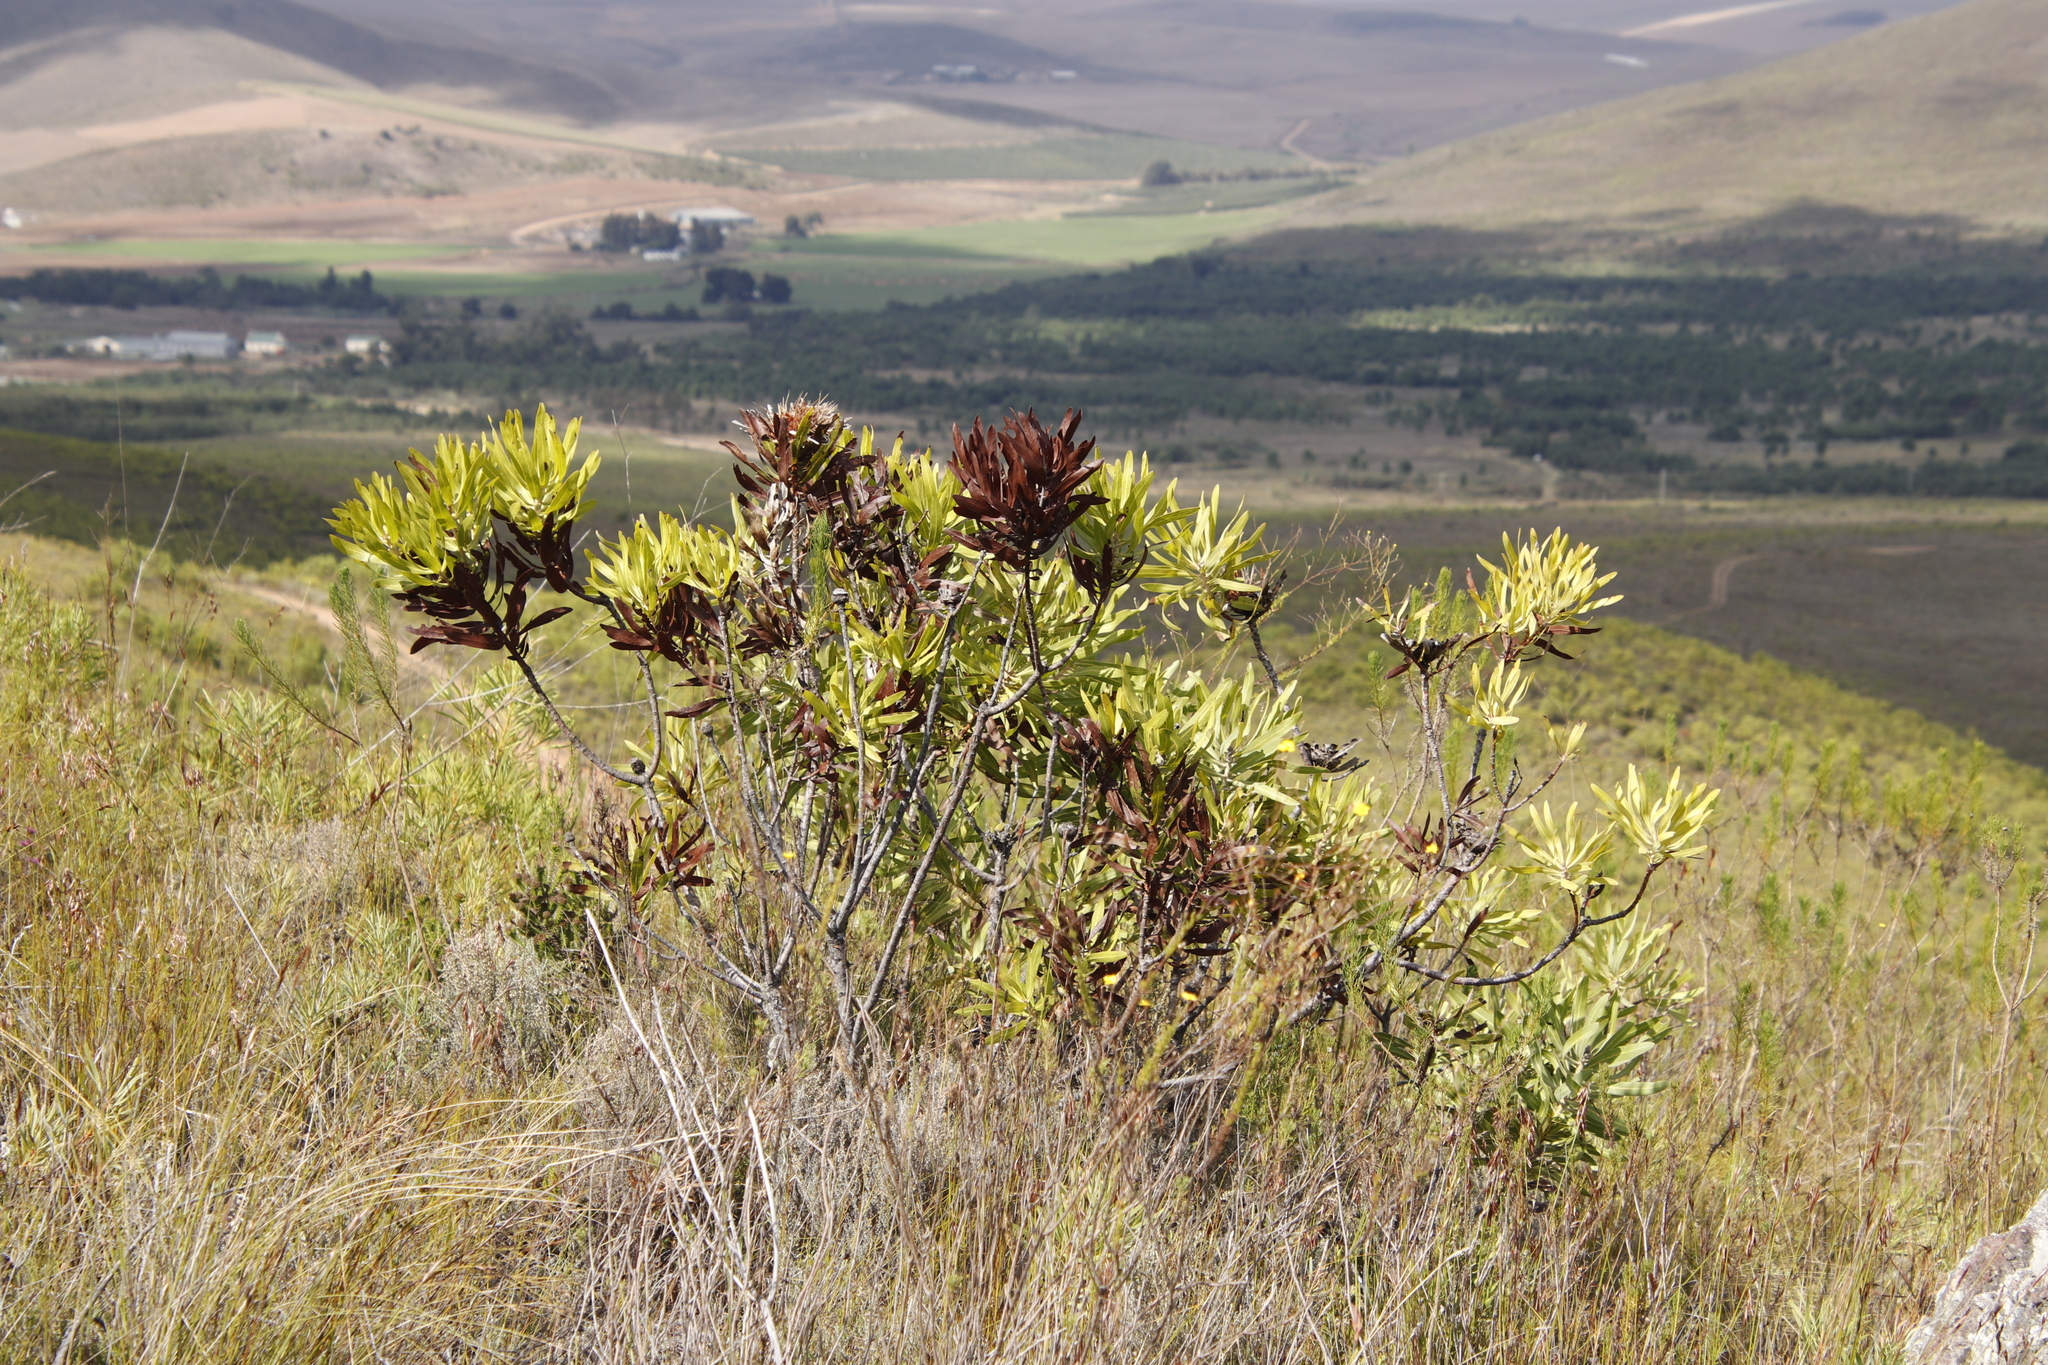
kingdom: Plantae
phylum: Tracheophyta
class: Magnoliopsida
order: Proteales
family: Proteaceae
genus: Protea
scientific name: Protea neriifolia
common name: Blue sugarbush
